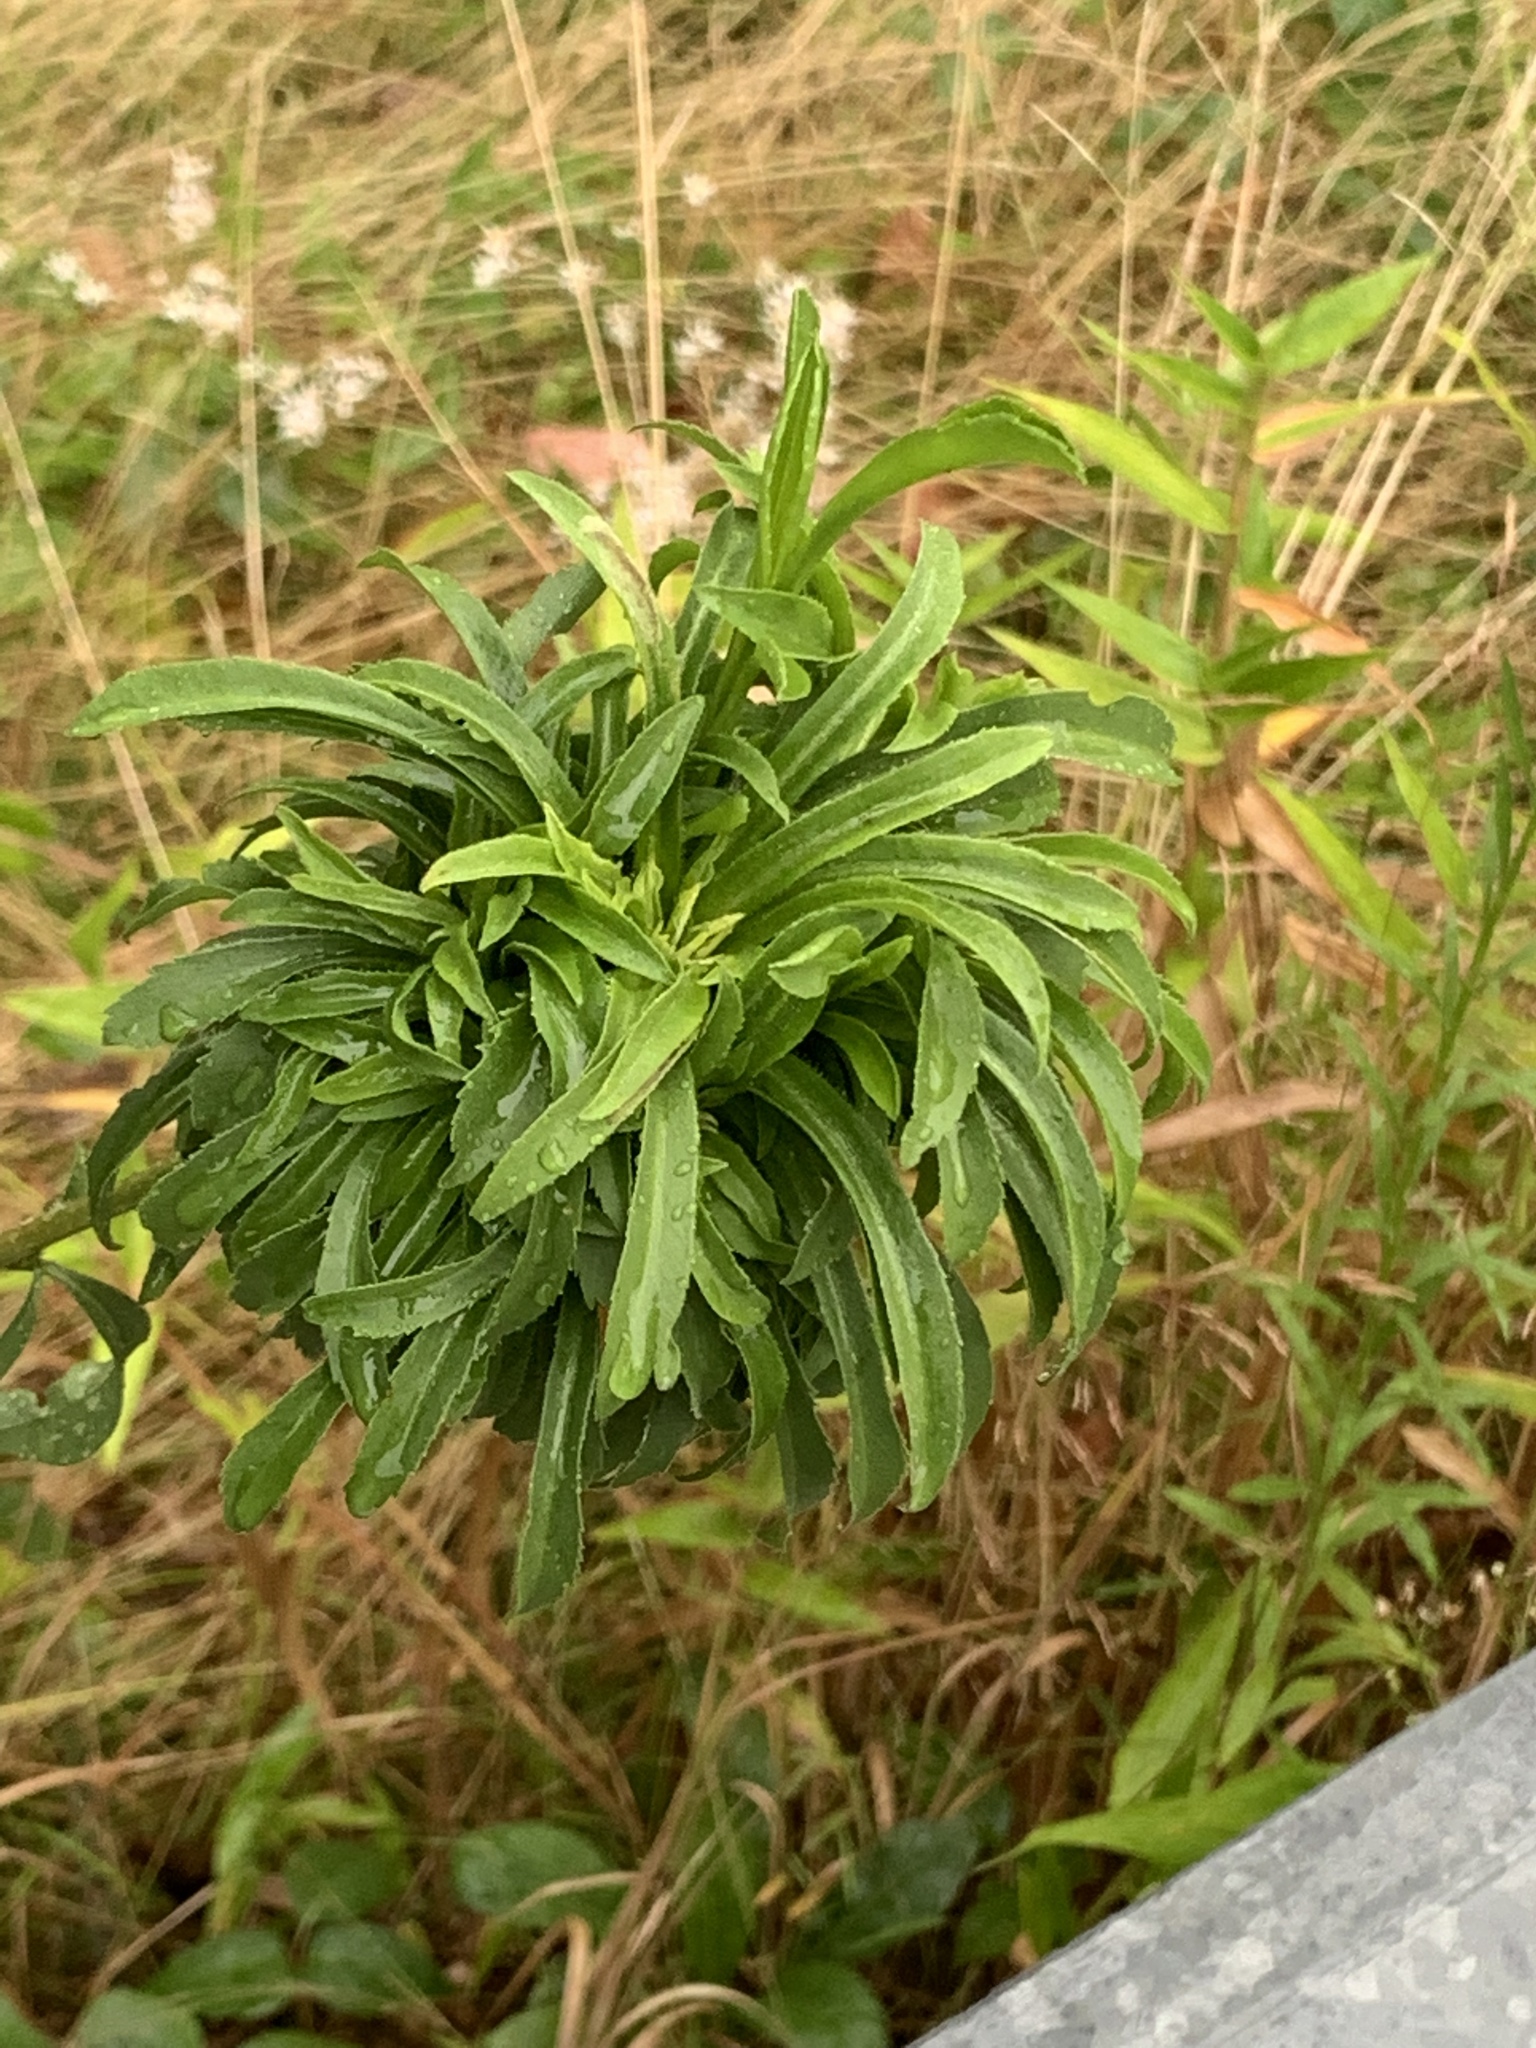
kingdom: Animalia
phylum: Arthropoda
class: Insecta
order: Diptera
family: Cecidomyiidae
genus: Asphondylia
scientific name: Asphondylia monacha
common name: Nun midge
